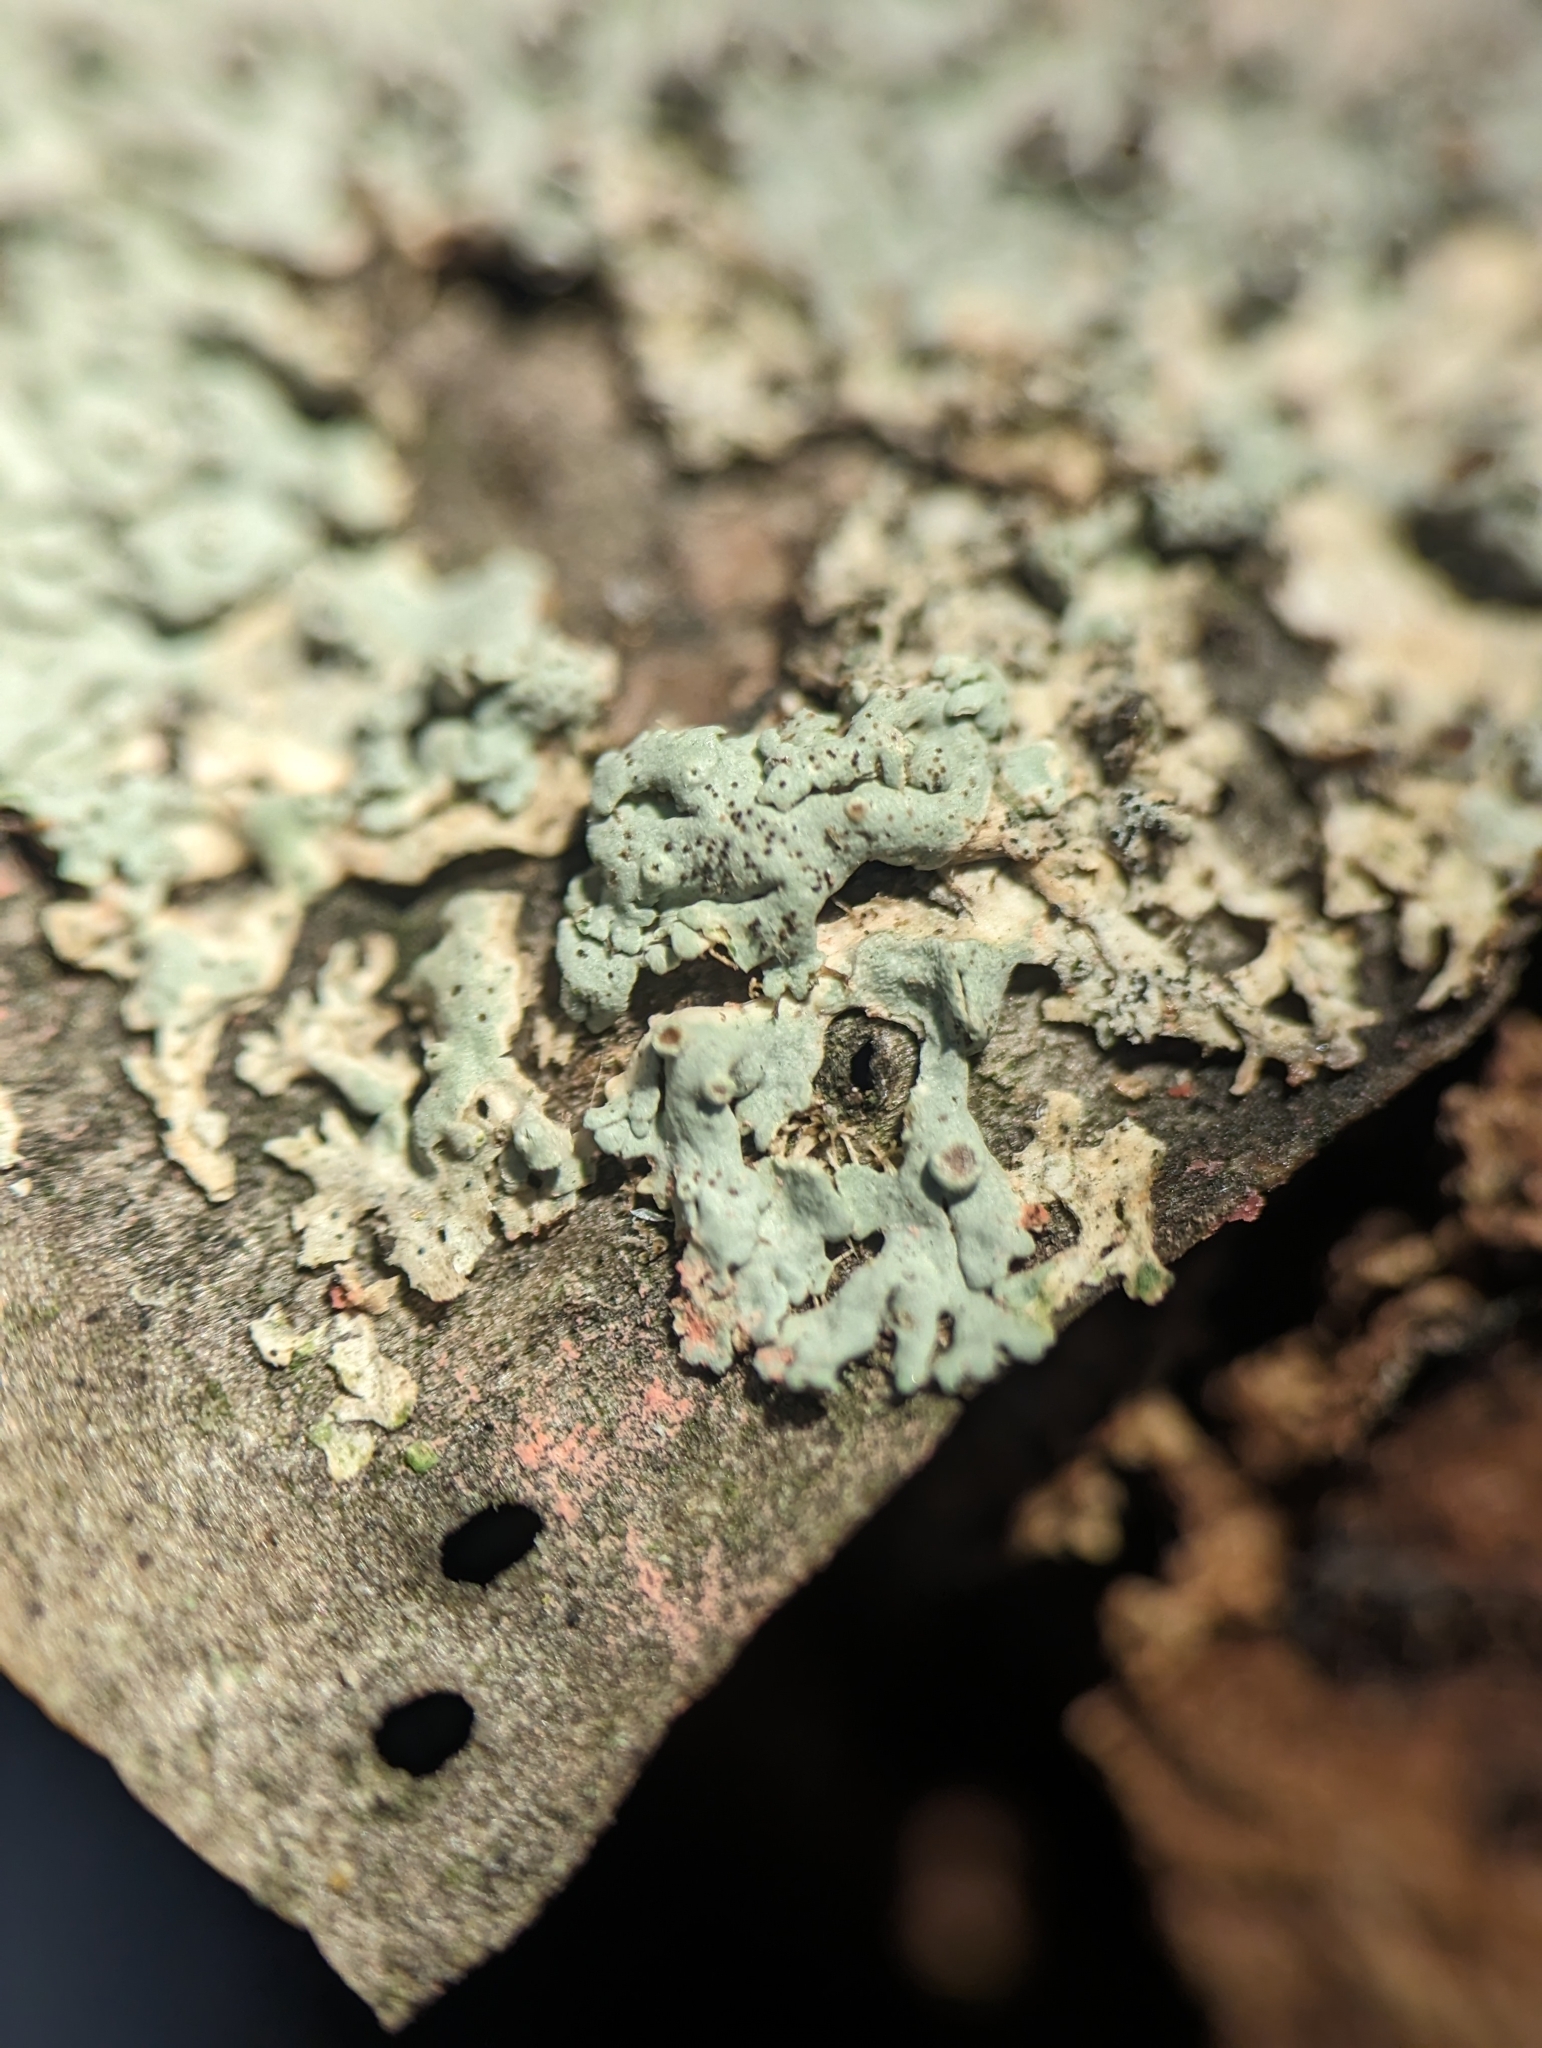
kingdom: Fungi
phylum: Ascomycota
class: Sordariomycetes
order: Hypocreales
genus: Illosporiopsis
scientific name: Illosporiopsis christiansenii
